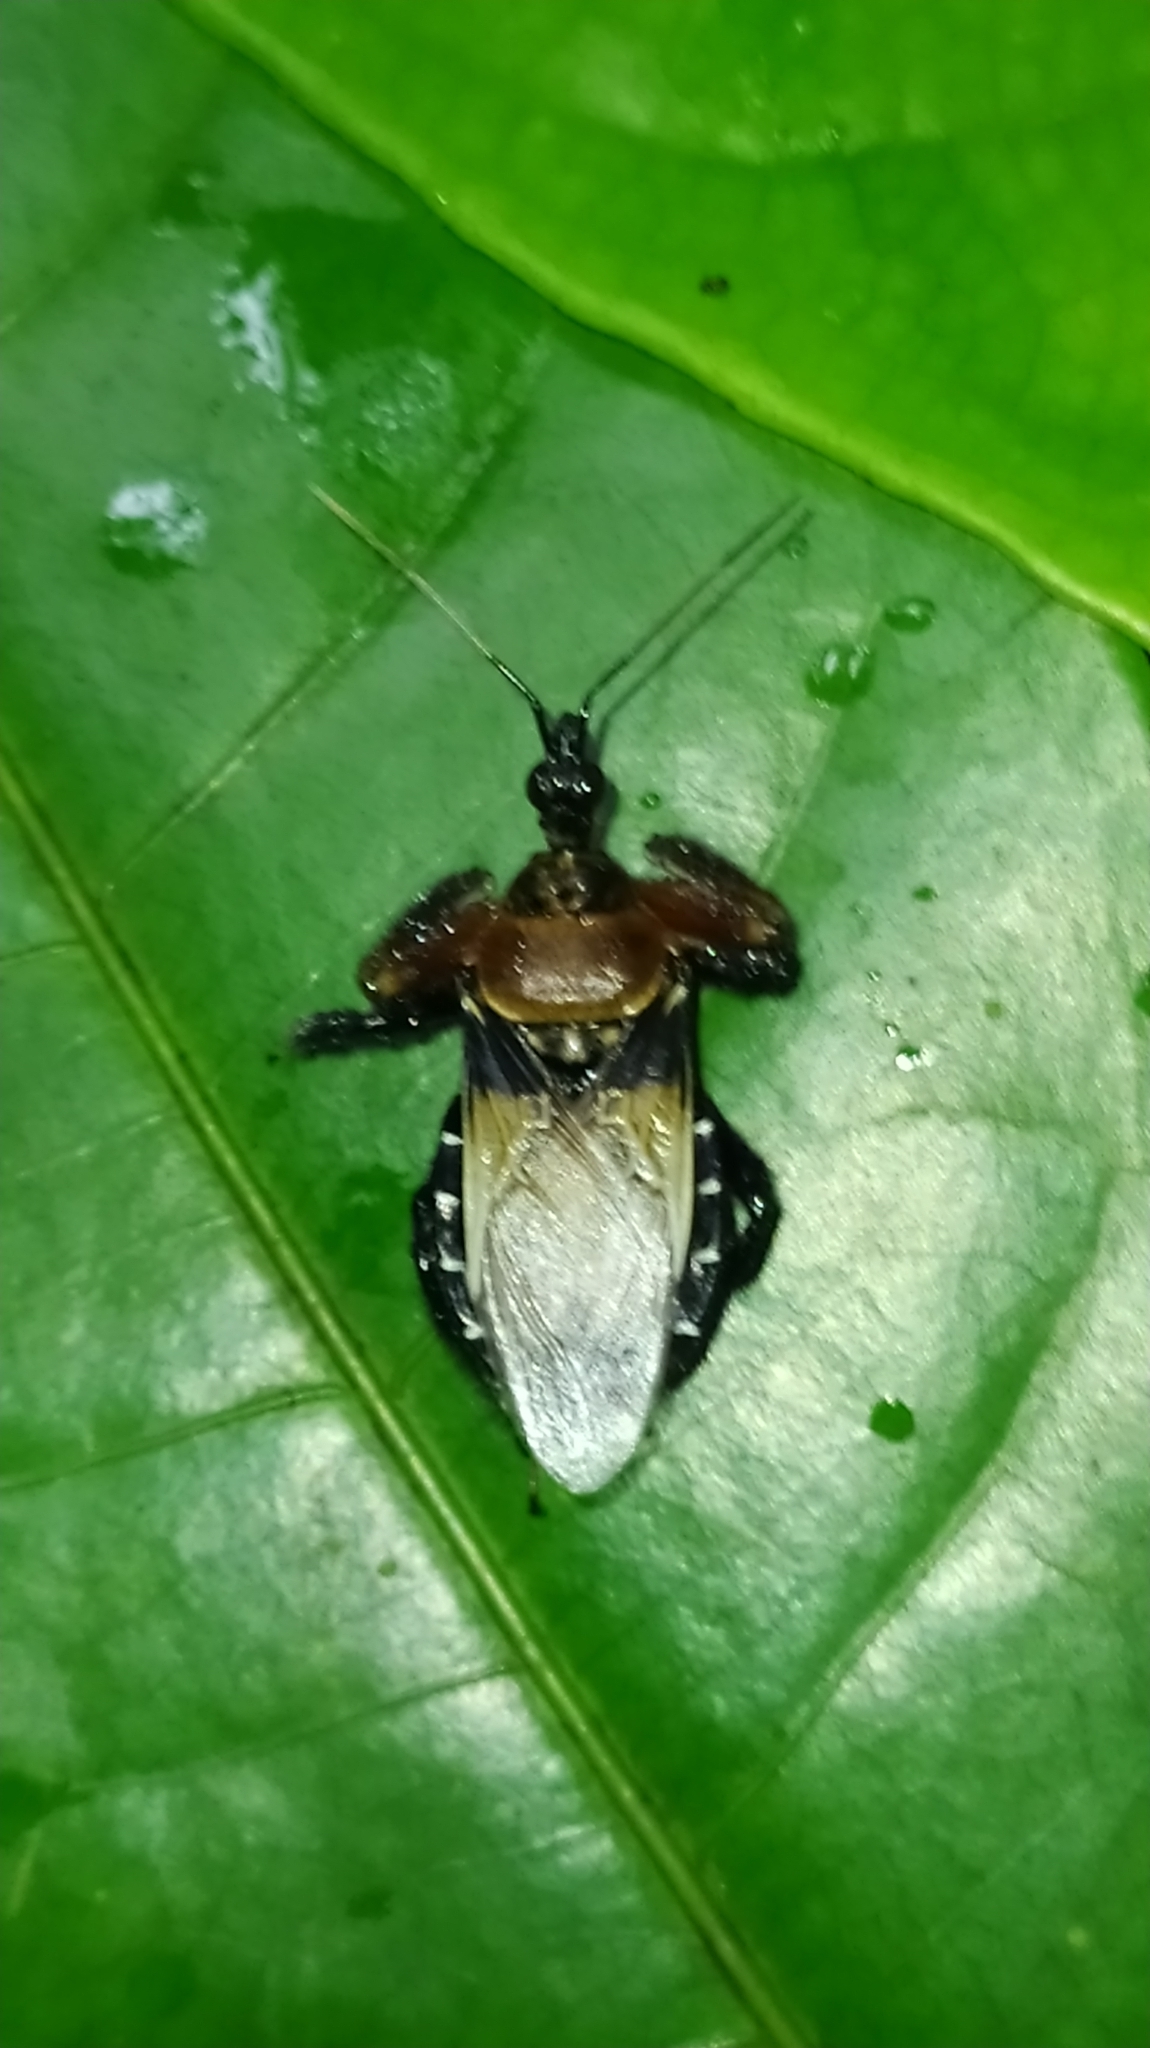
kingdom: Animalia
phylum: Arthropoda
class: Insecta
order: Hemiptera
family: Reduviidae
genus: Apiomerus
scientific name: Apiomerus pilipes
